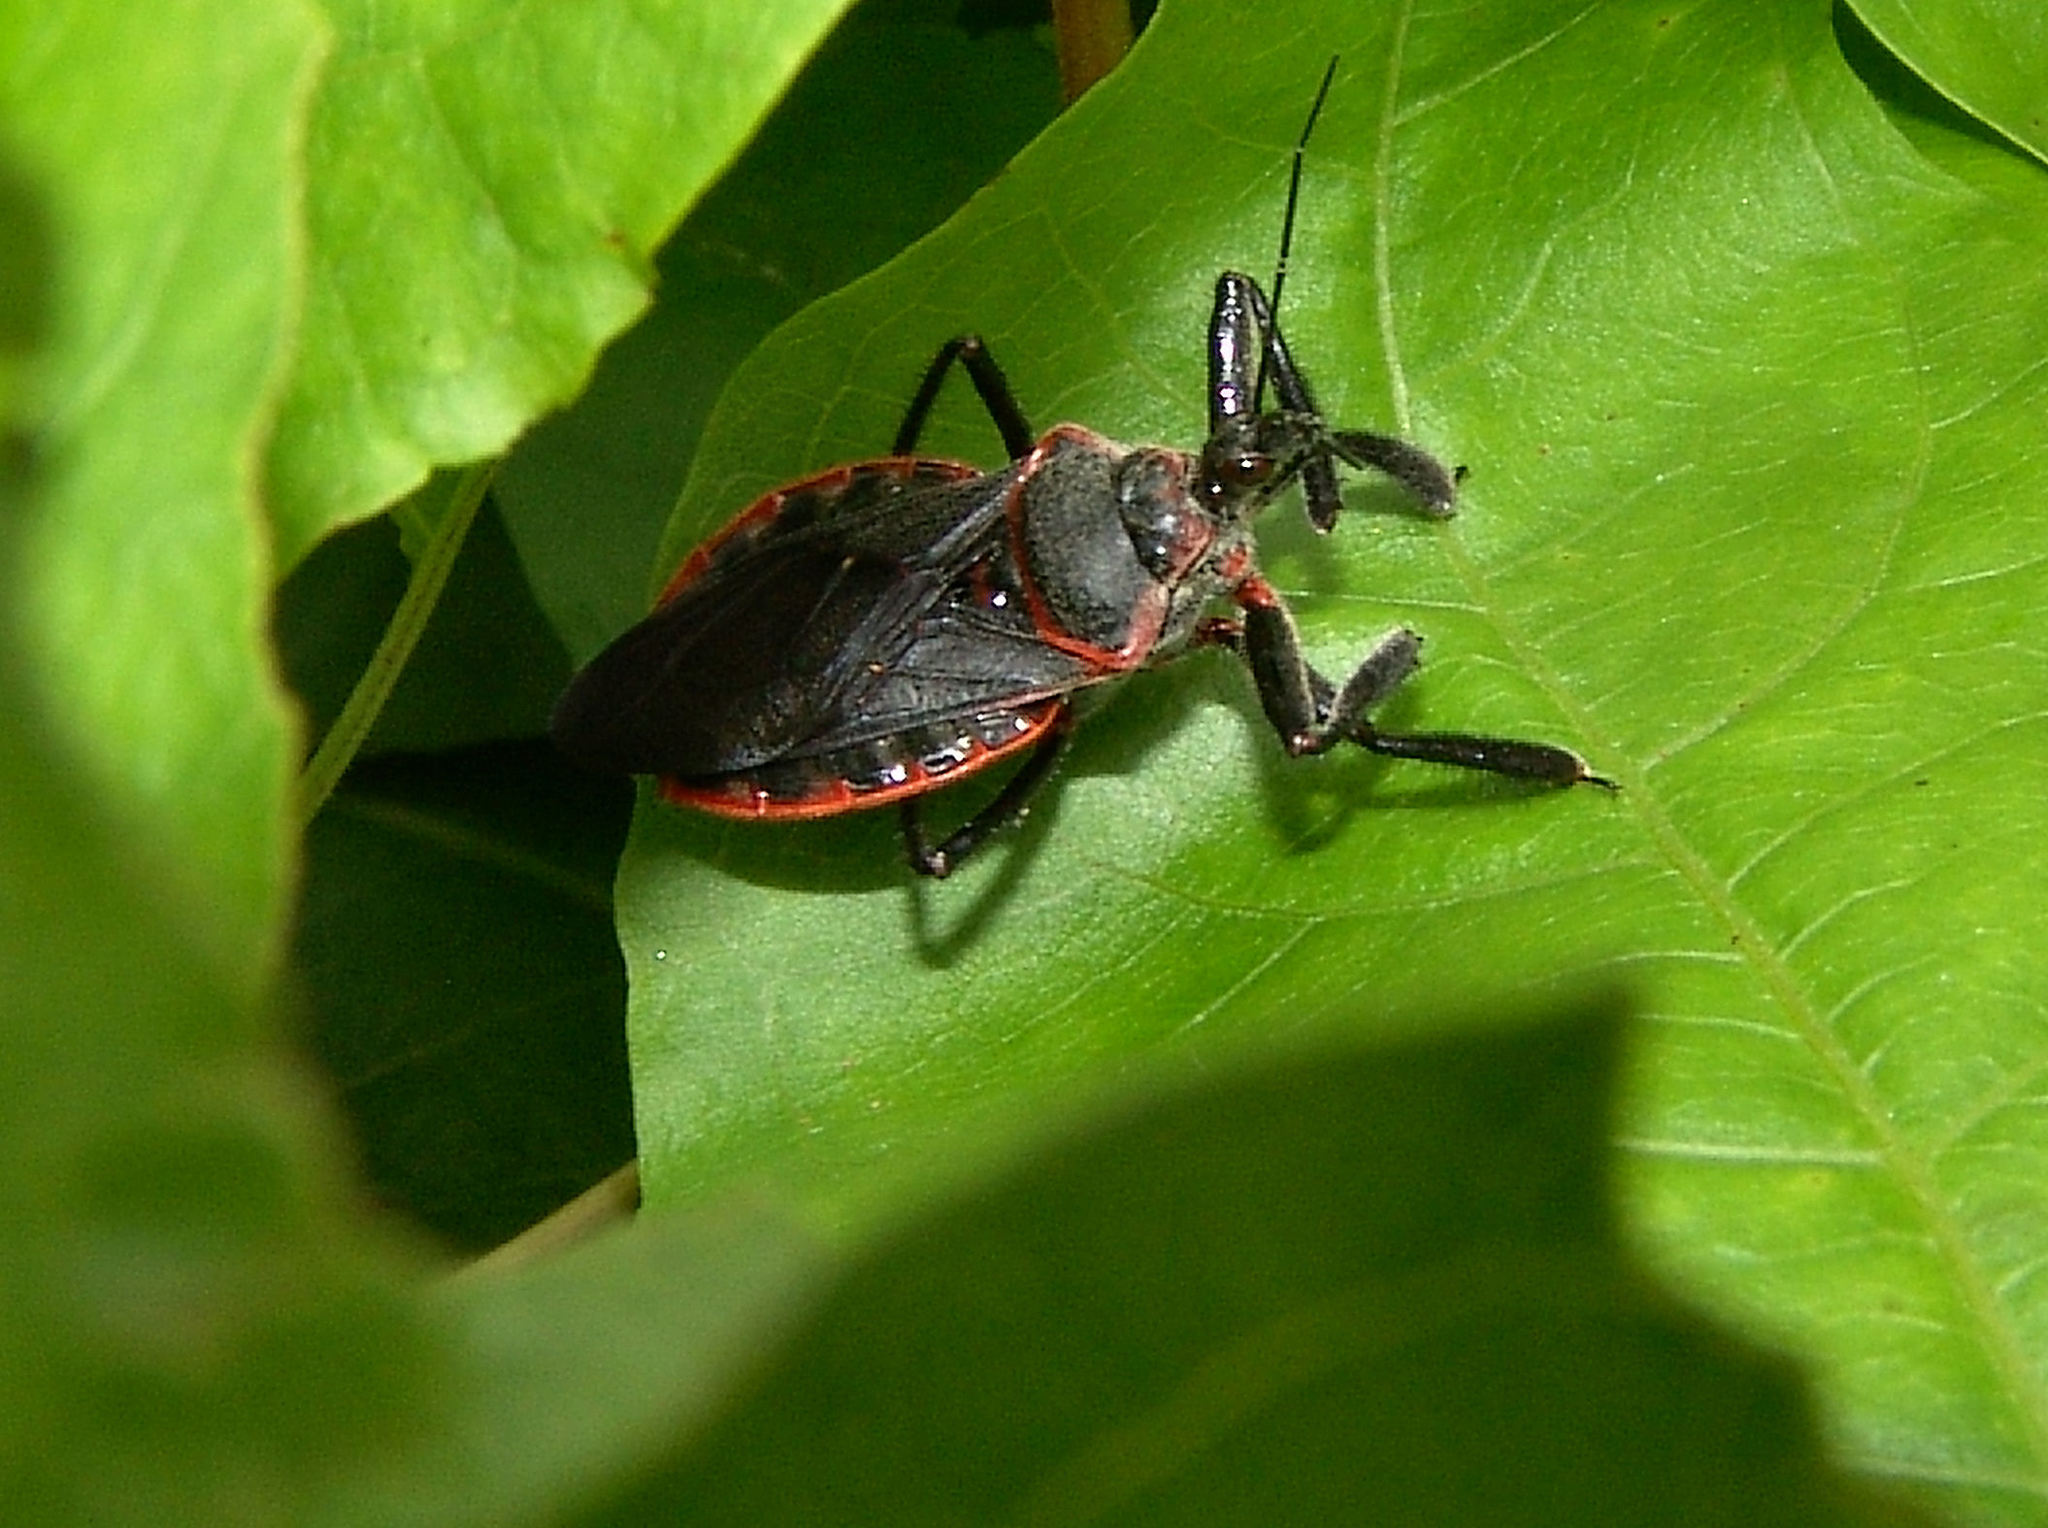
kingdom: Animalia
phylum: Arthropoda
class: Insecta
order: Hemiptera
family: Reduviidae
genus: Apiomerus
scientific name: Apiomerus crassipes
